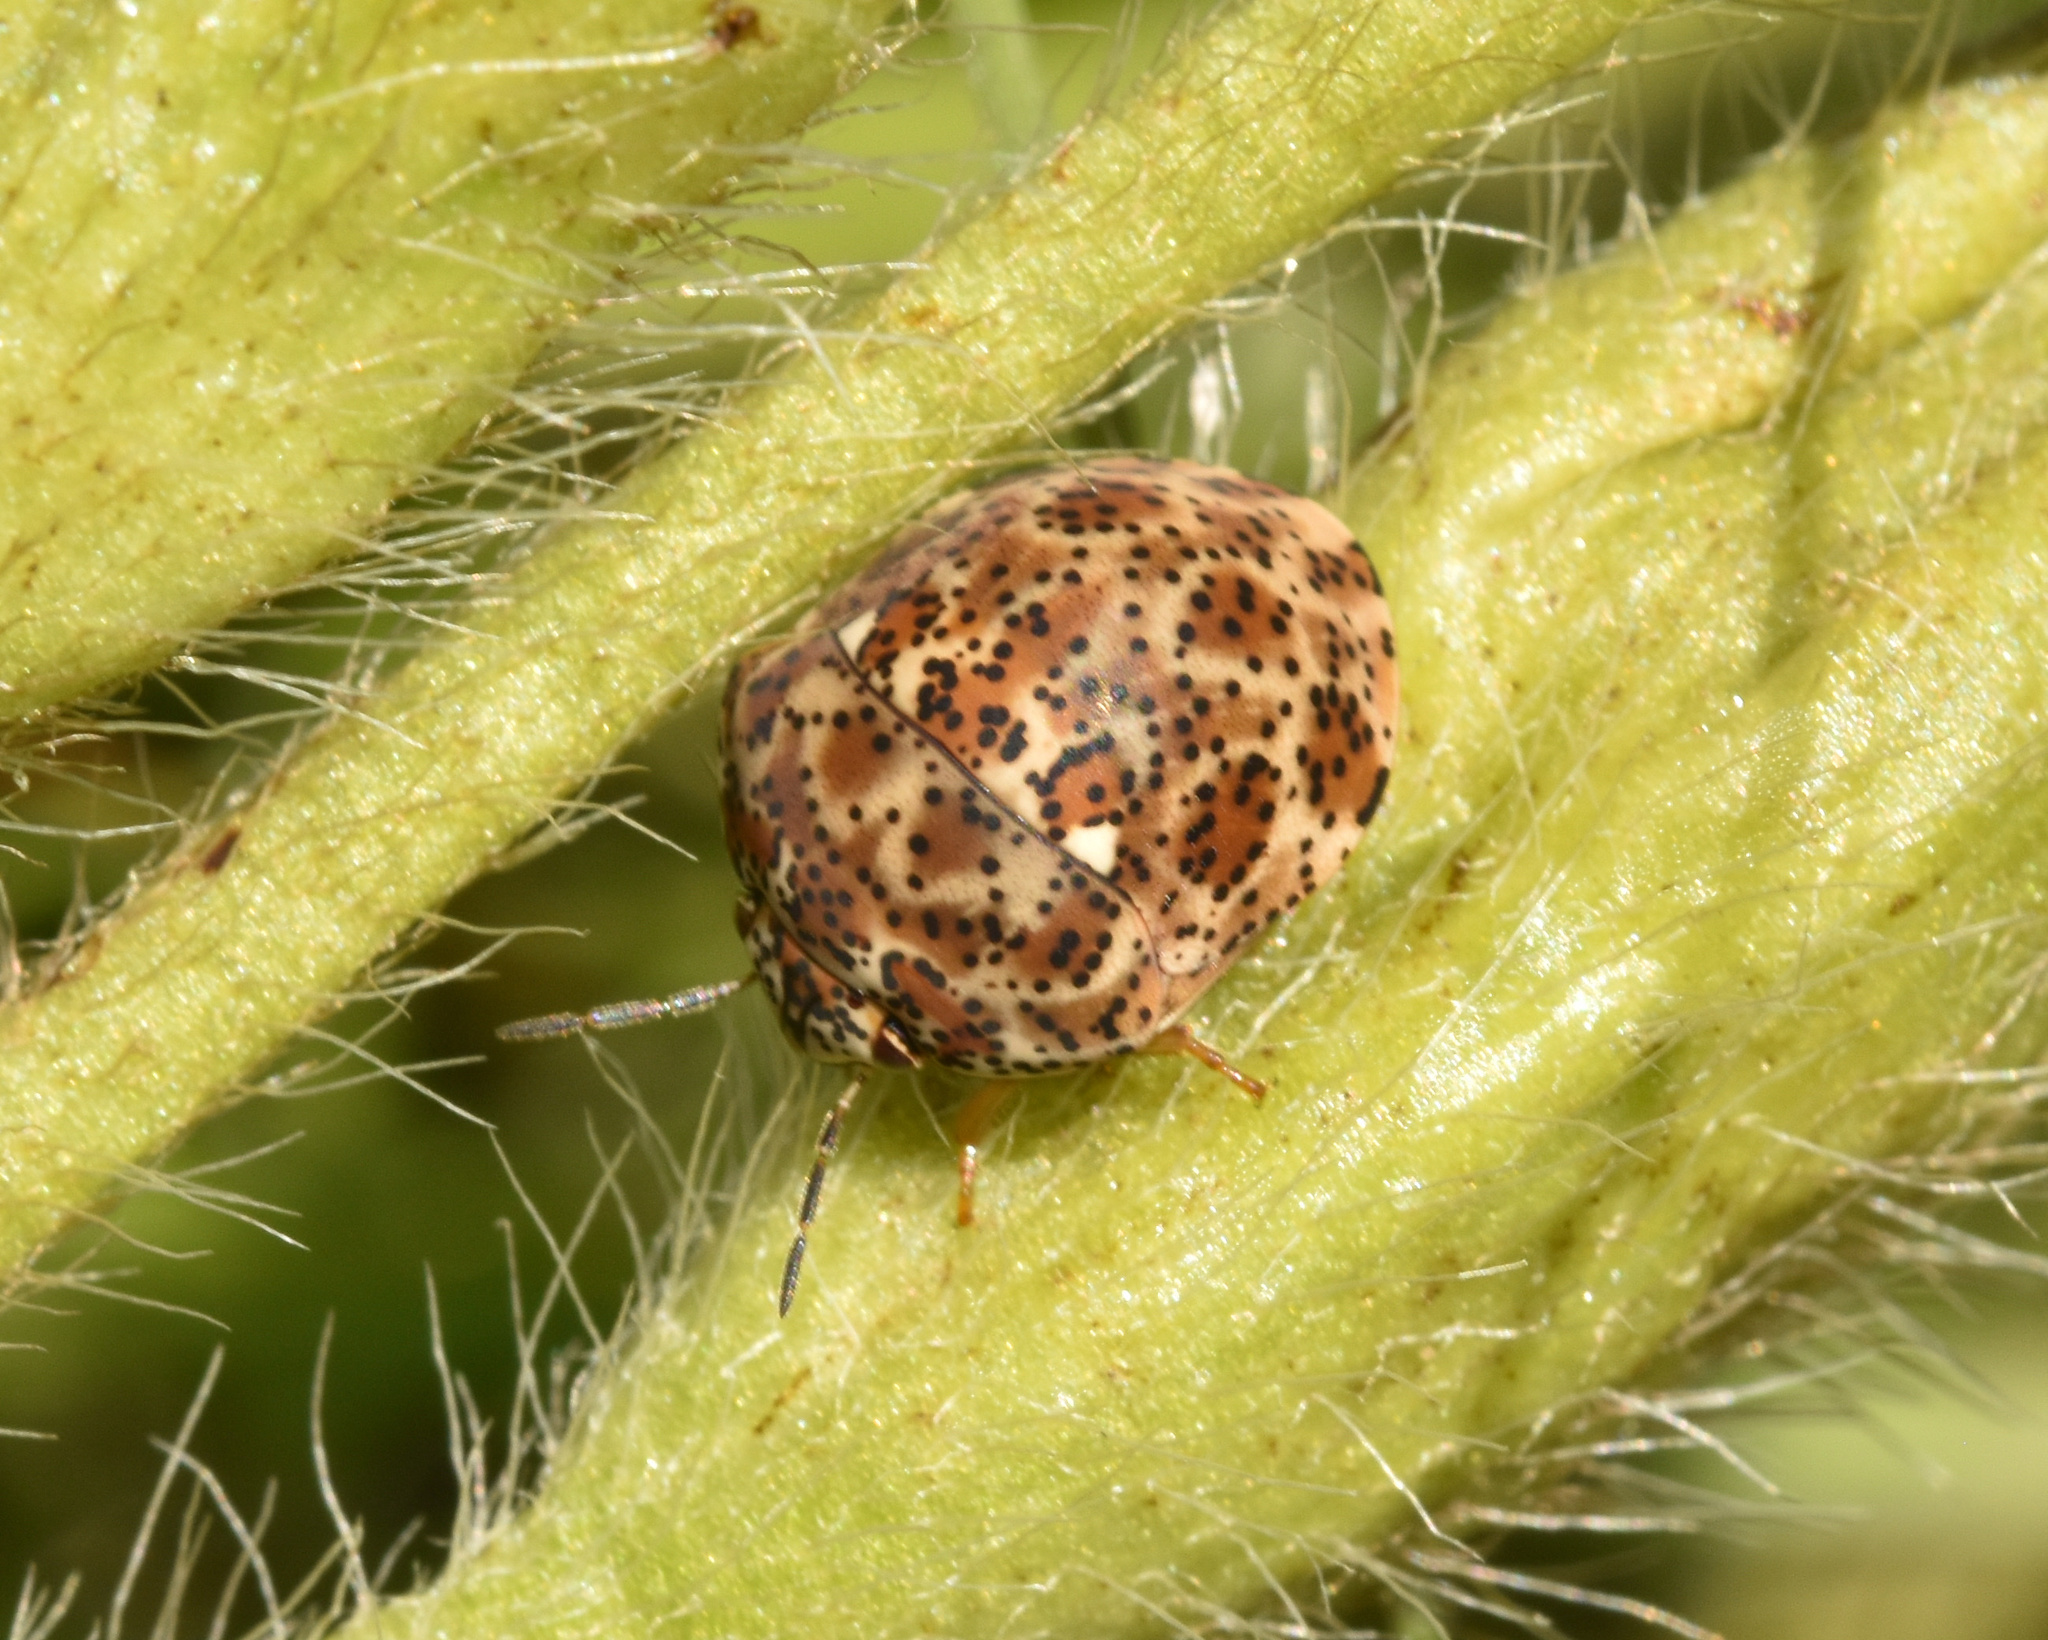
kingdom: Animalia
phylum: Arthropoda
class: Insecta
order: Hemiptera
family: Scutelleridae
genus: Sphaerocoris
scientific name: Sphaerocoris
